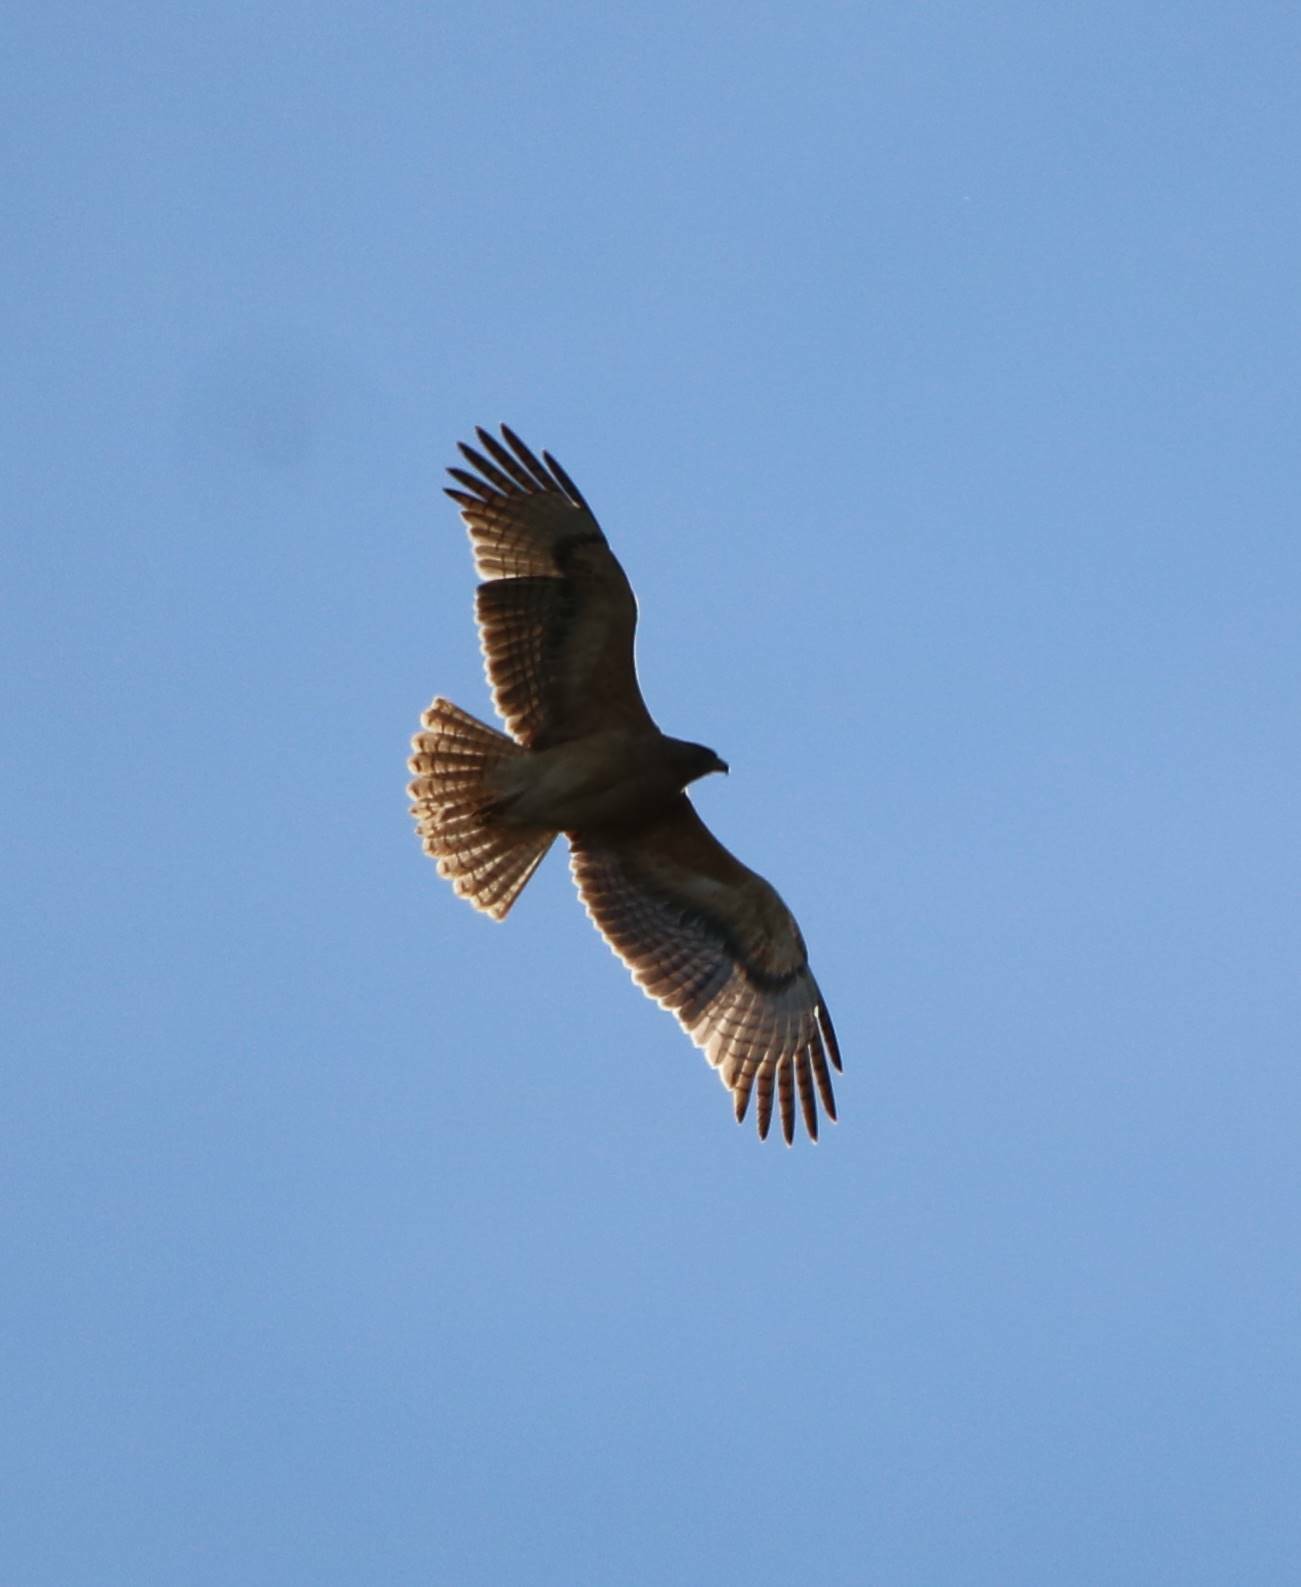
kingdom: Animalia
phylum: Chordata
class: Aves
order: Accipitriformes
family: Accipitridae
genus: Aquila
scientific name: Aquila fasciata
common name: Bonelli's eagle
